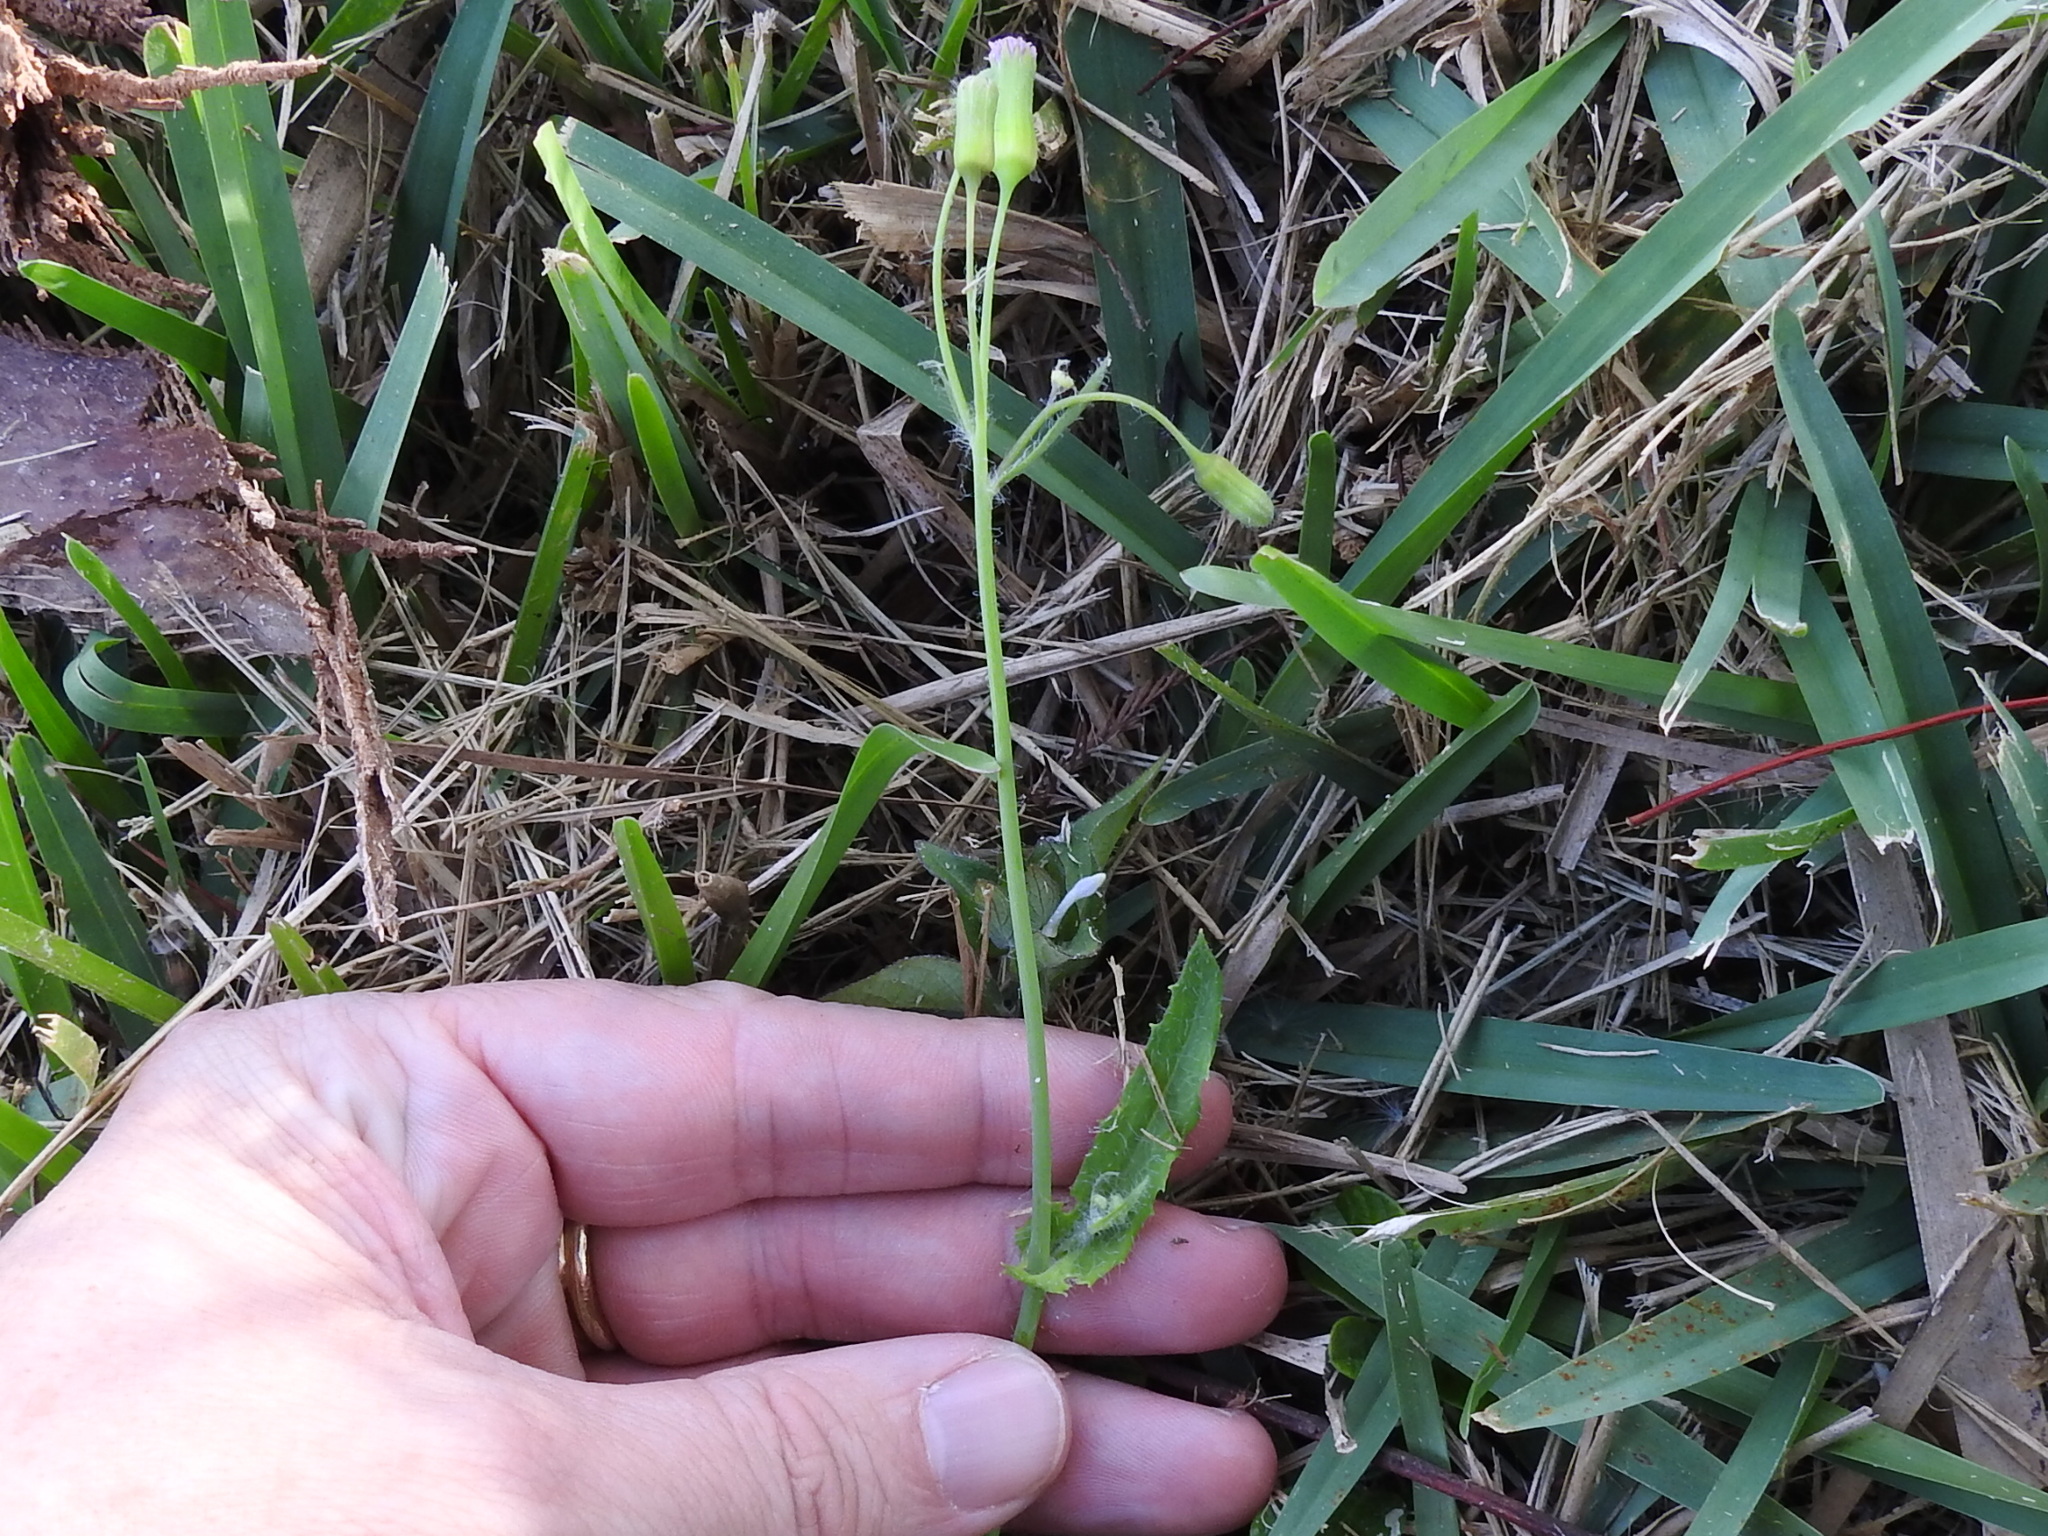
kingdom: Plantae
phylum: Tracheophyta
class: Magnoliopsida
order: Asterales
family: Asteraceae
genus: Emilia
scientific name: Emilia sonchifolia
